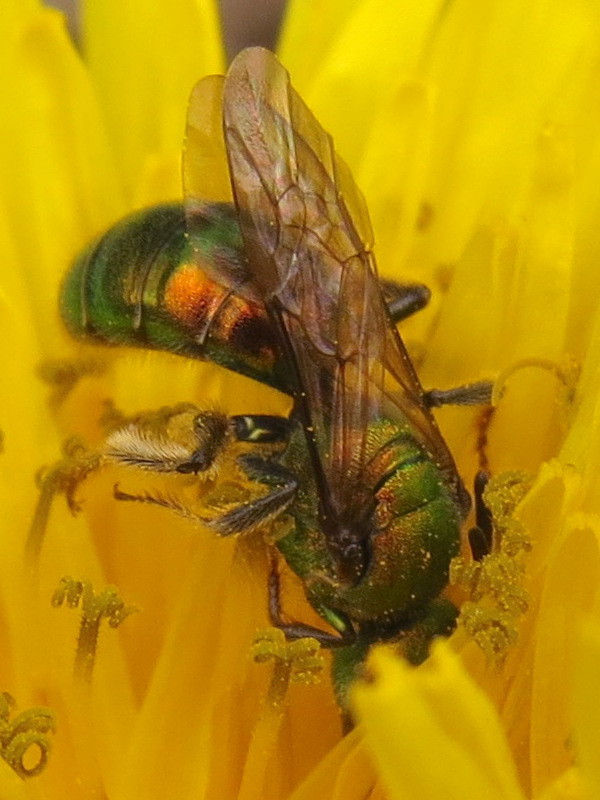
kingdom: Animalia
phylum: Arthropoda
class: Insecta
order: Hymenoptera
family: Halictidae
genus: Augochlora
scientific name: Augochlora pura
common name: Pure green sweat bee
